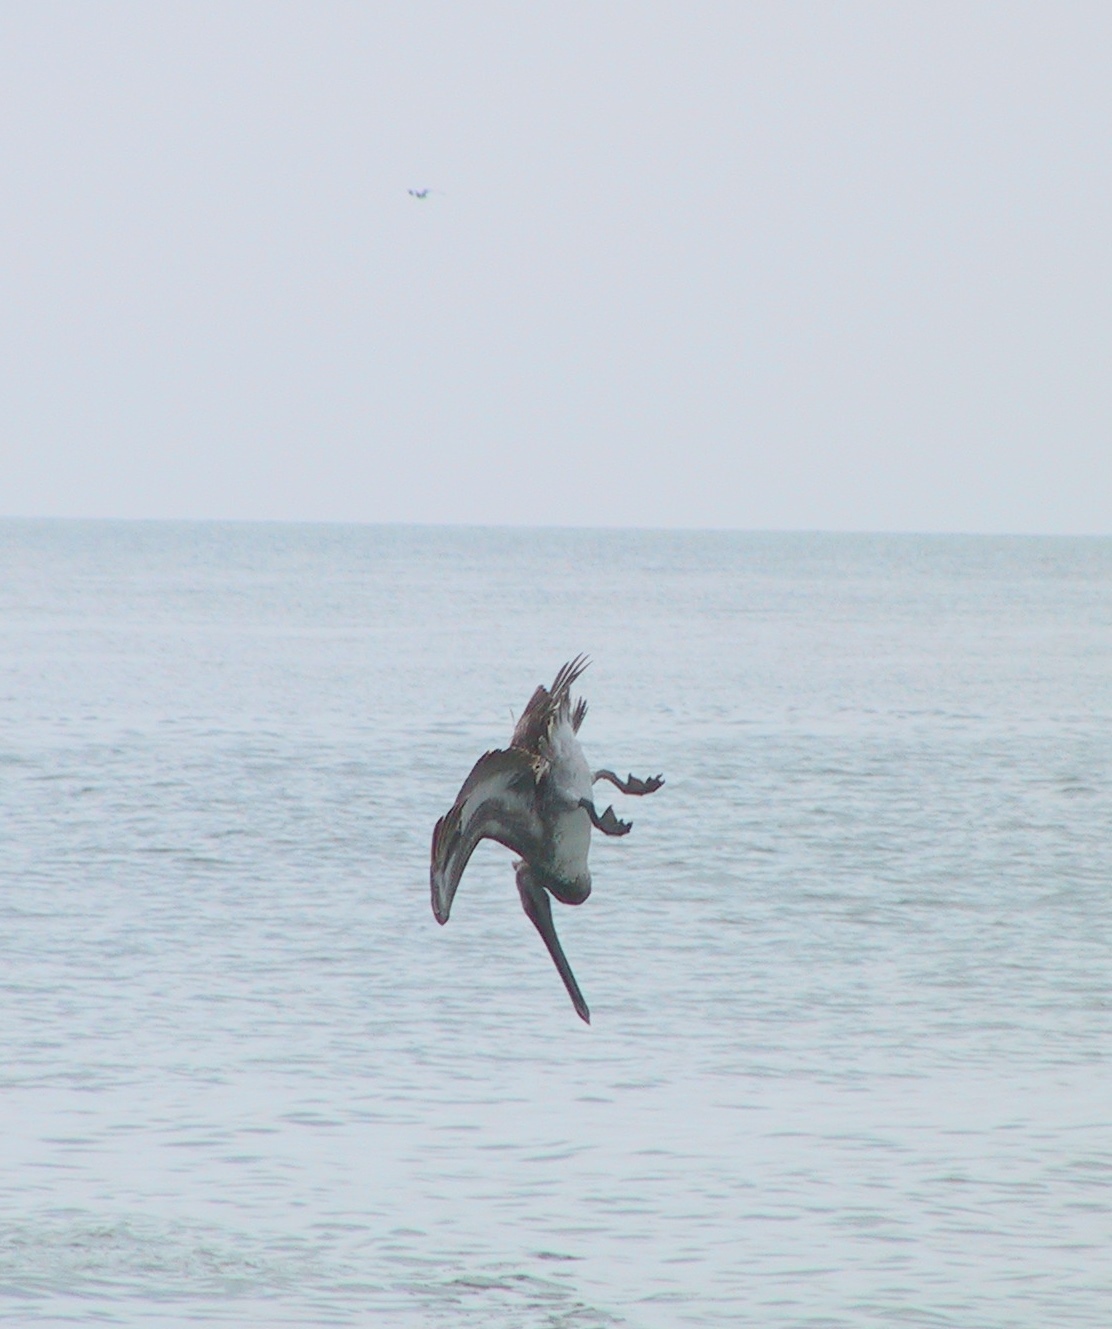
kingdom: Animalia
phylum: Chordata
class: Aves
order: Pelecaniformes
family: Pelecanidae
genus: Pelecanus
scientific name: Pelecanus occidentalis
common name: Brown pelican
